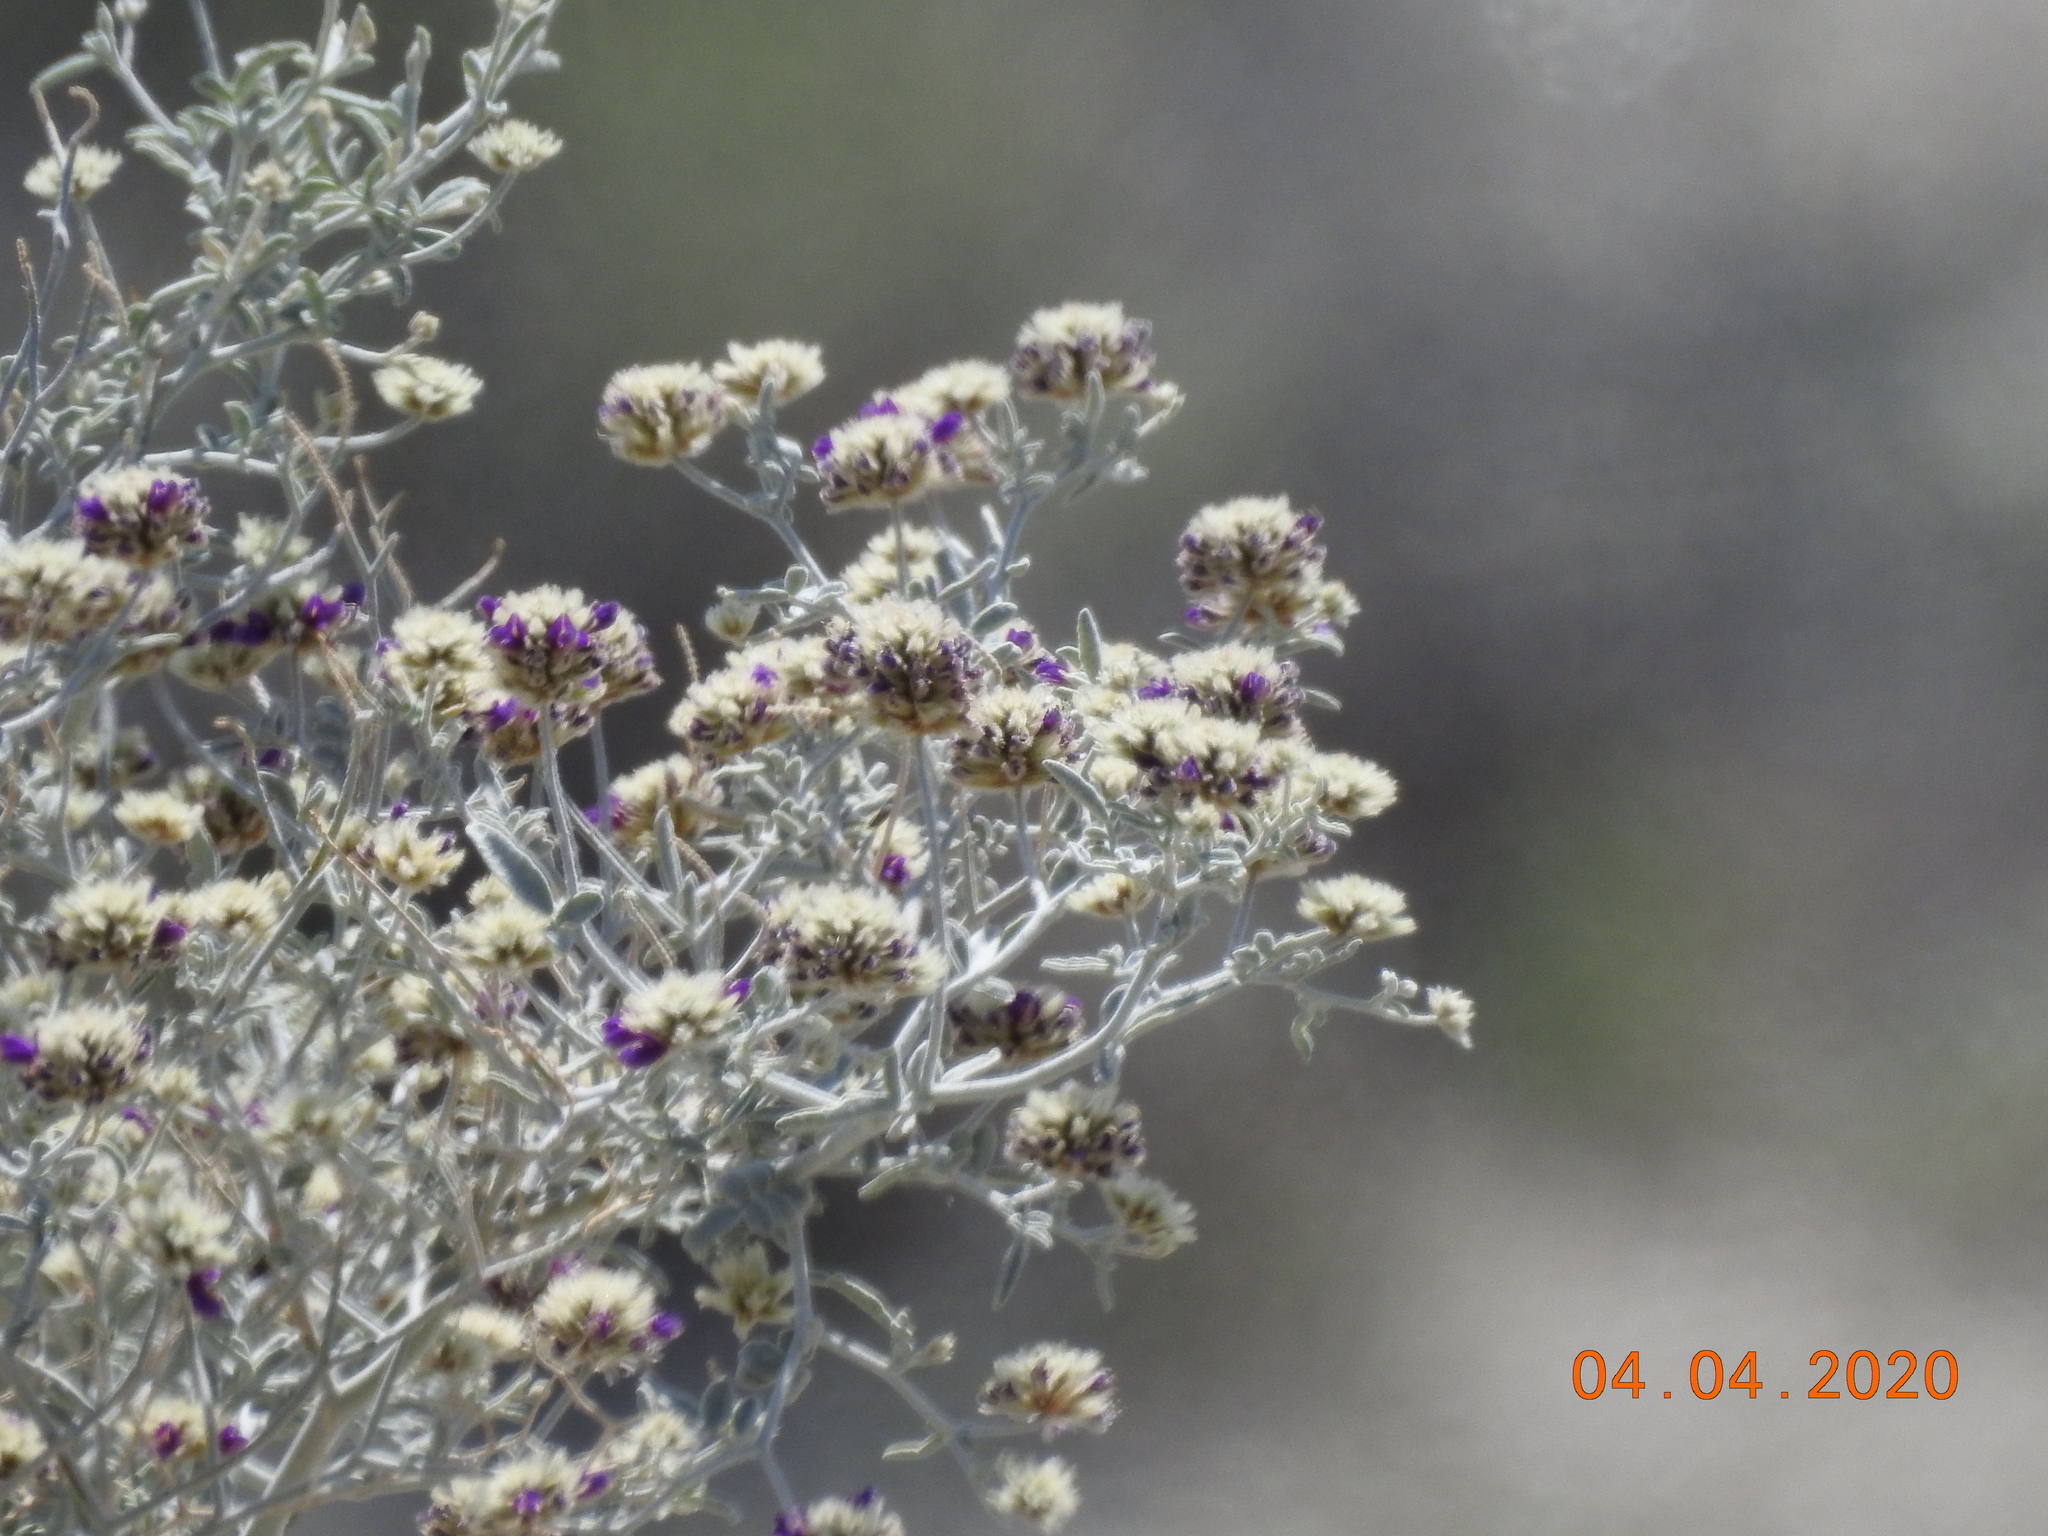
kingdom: Plantae
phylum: Tracheophyta
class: Magnoliopsida
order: Fabales
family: Fabaceae
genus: Psorothamnus
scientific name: Psorothamnus emoryi
